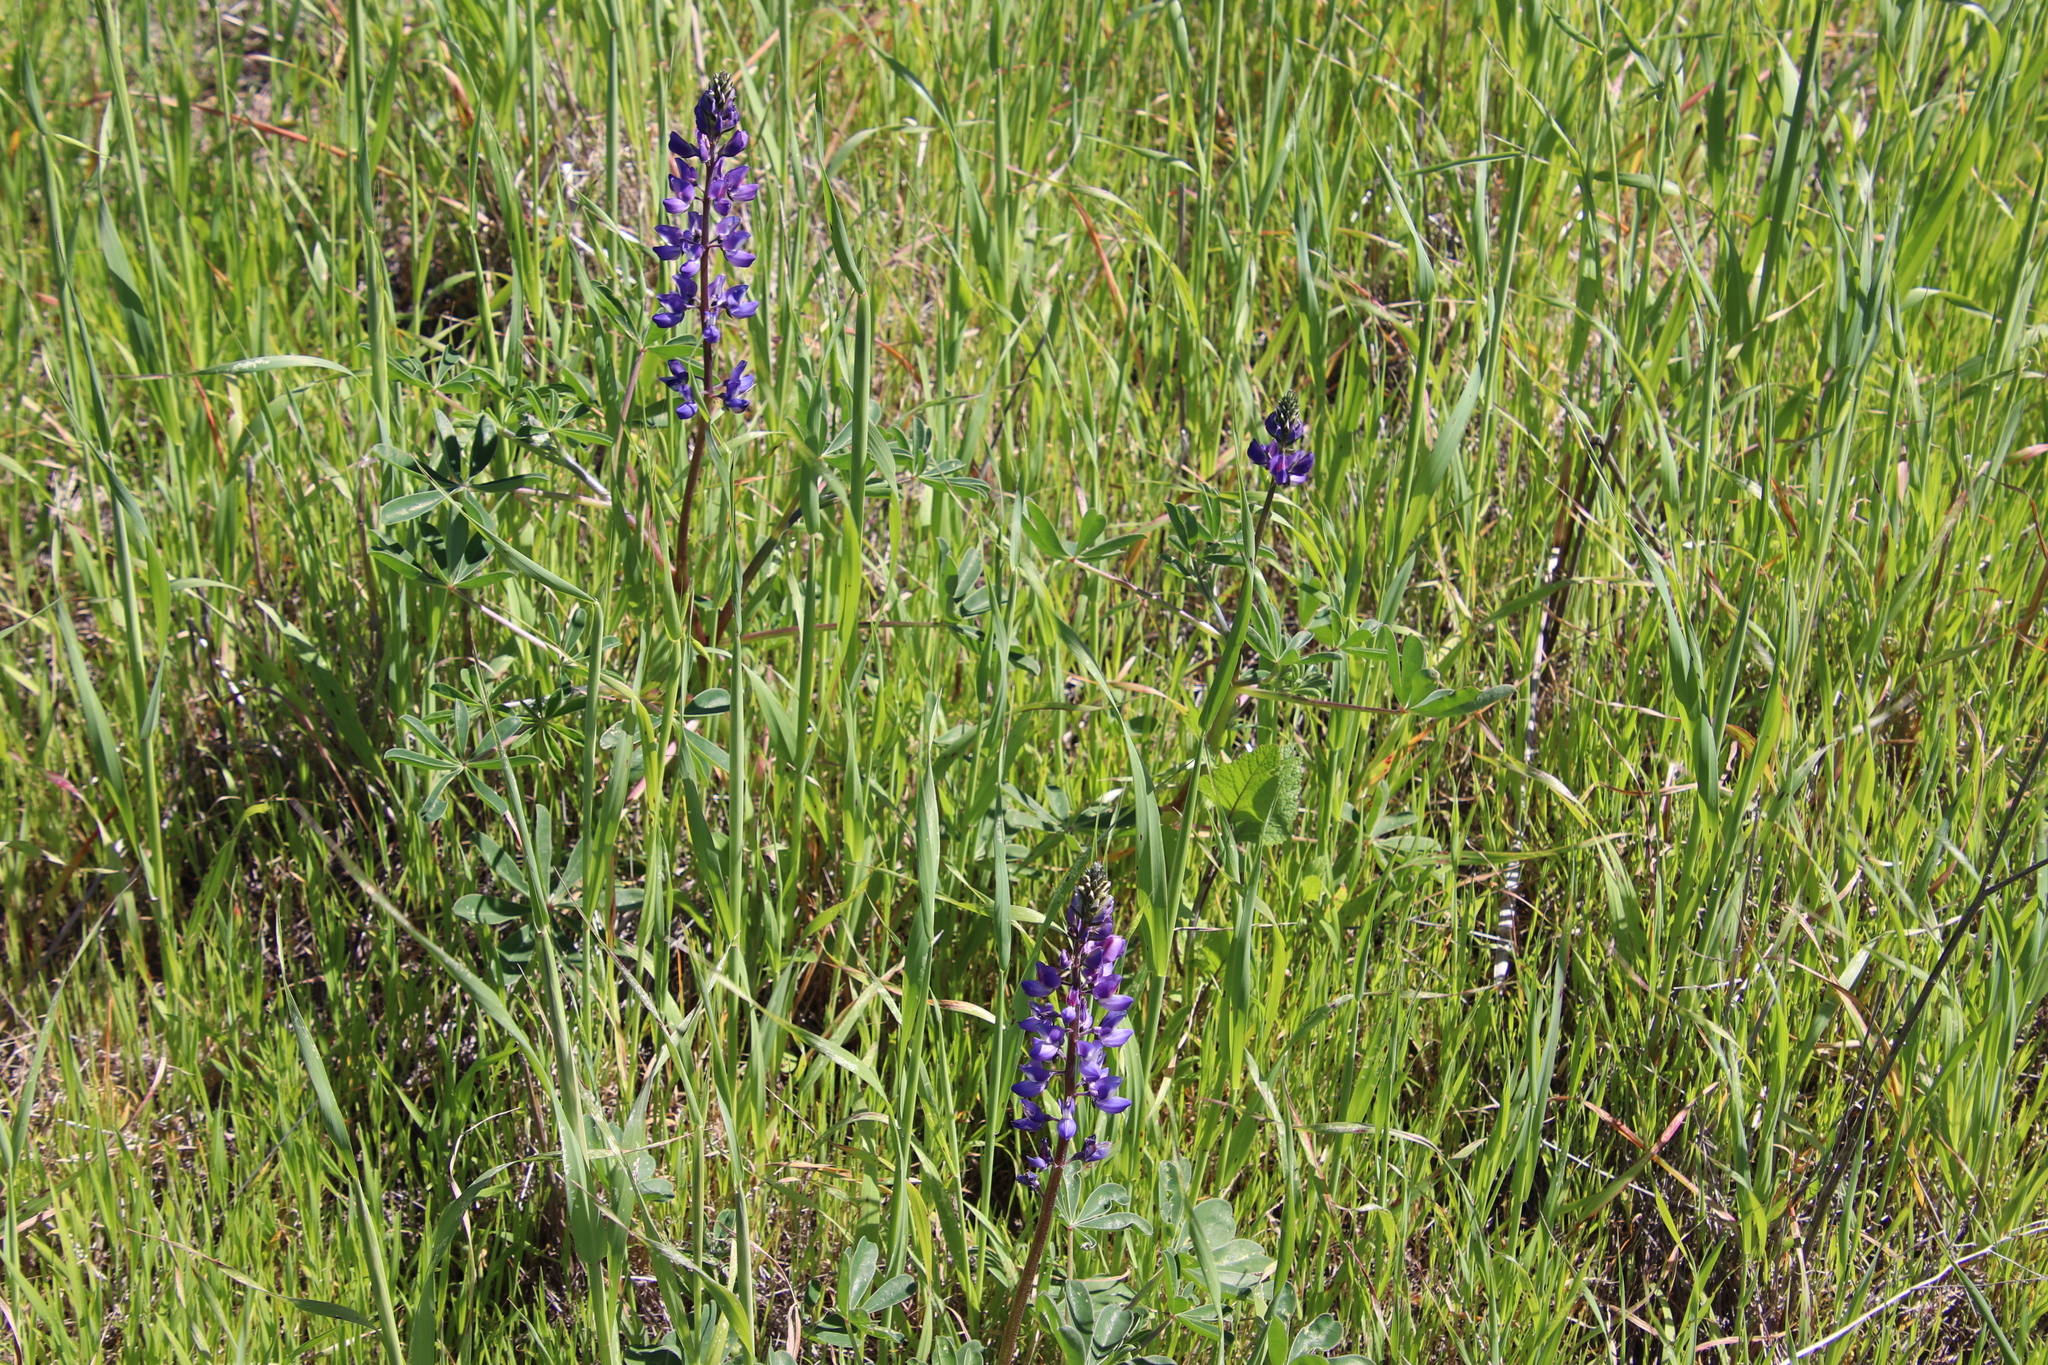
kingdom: Plantae
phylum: Tracheophyta
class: Magnoliopsida
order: Fabales
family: Fabaceae
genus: Lupinus
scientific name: Lupinus succulentus
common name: Arroyo lupine
